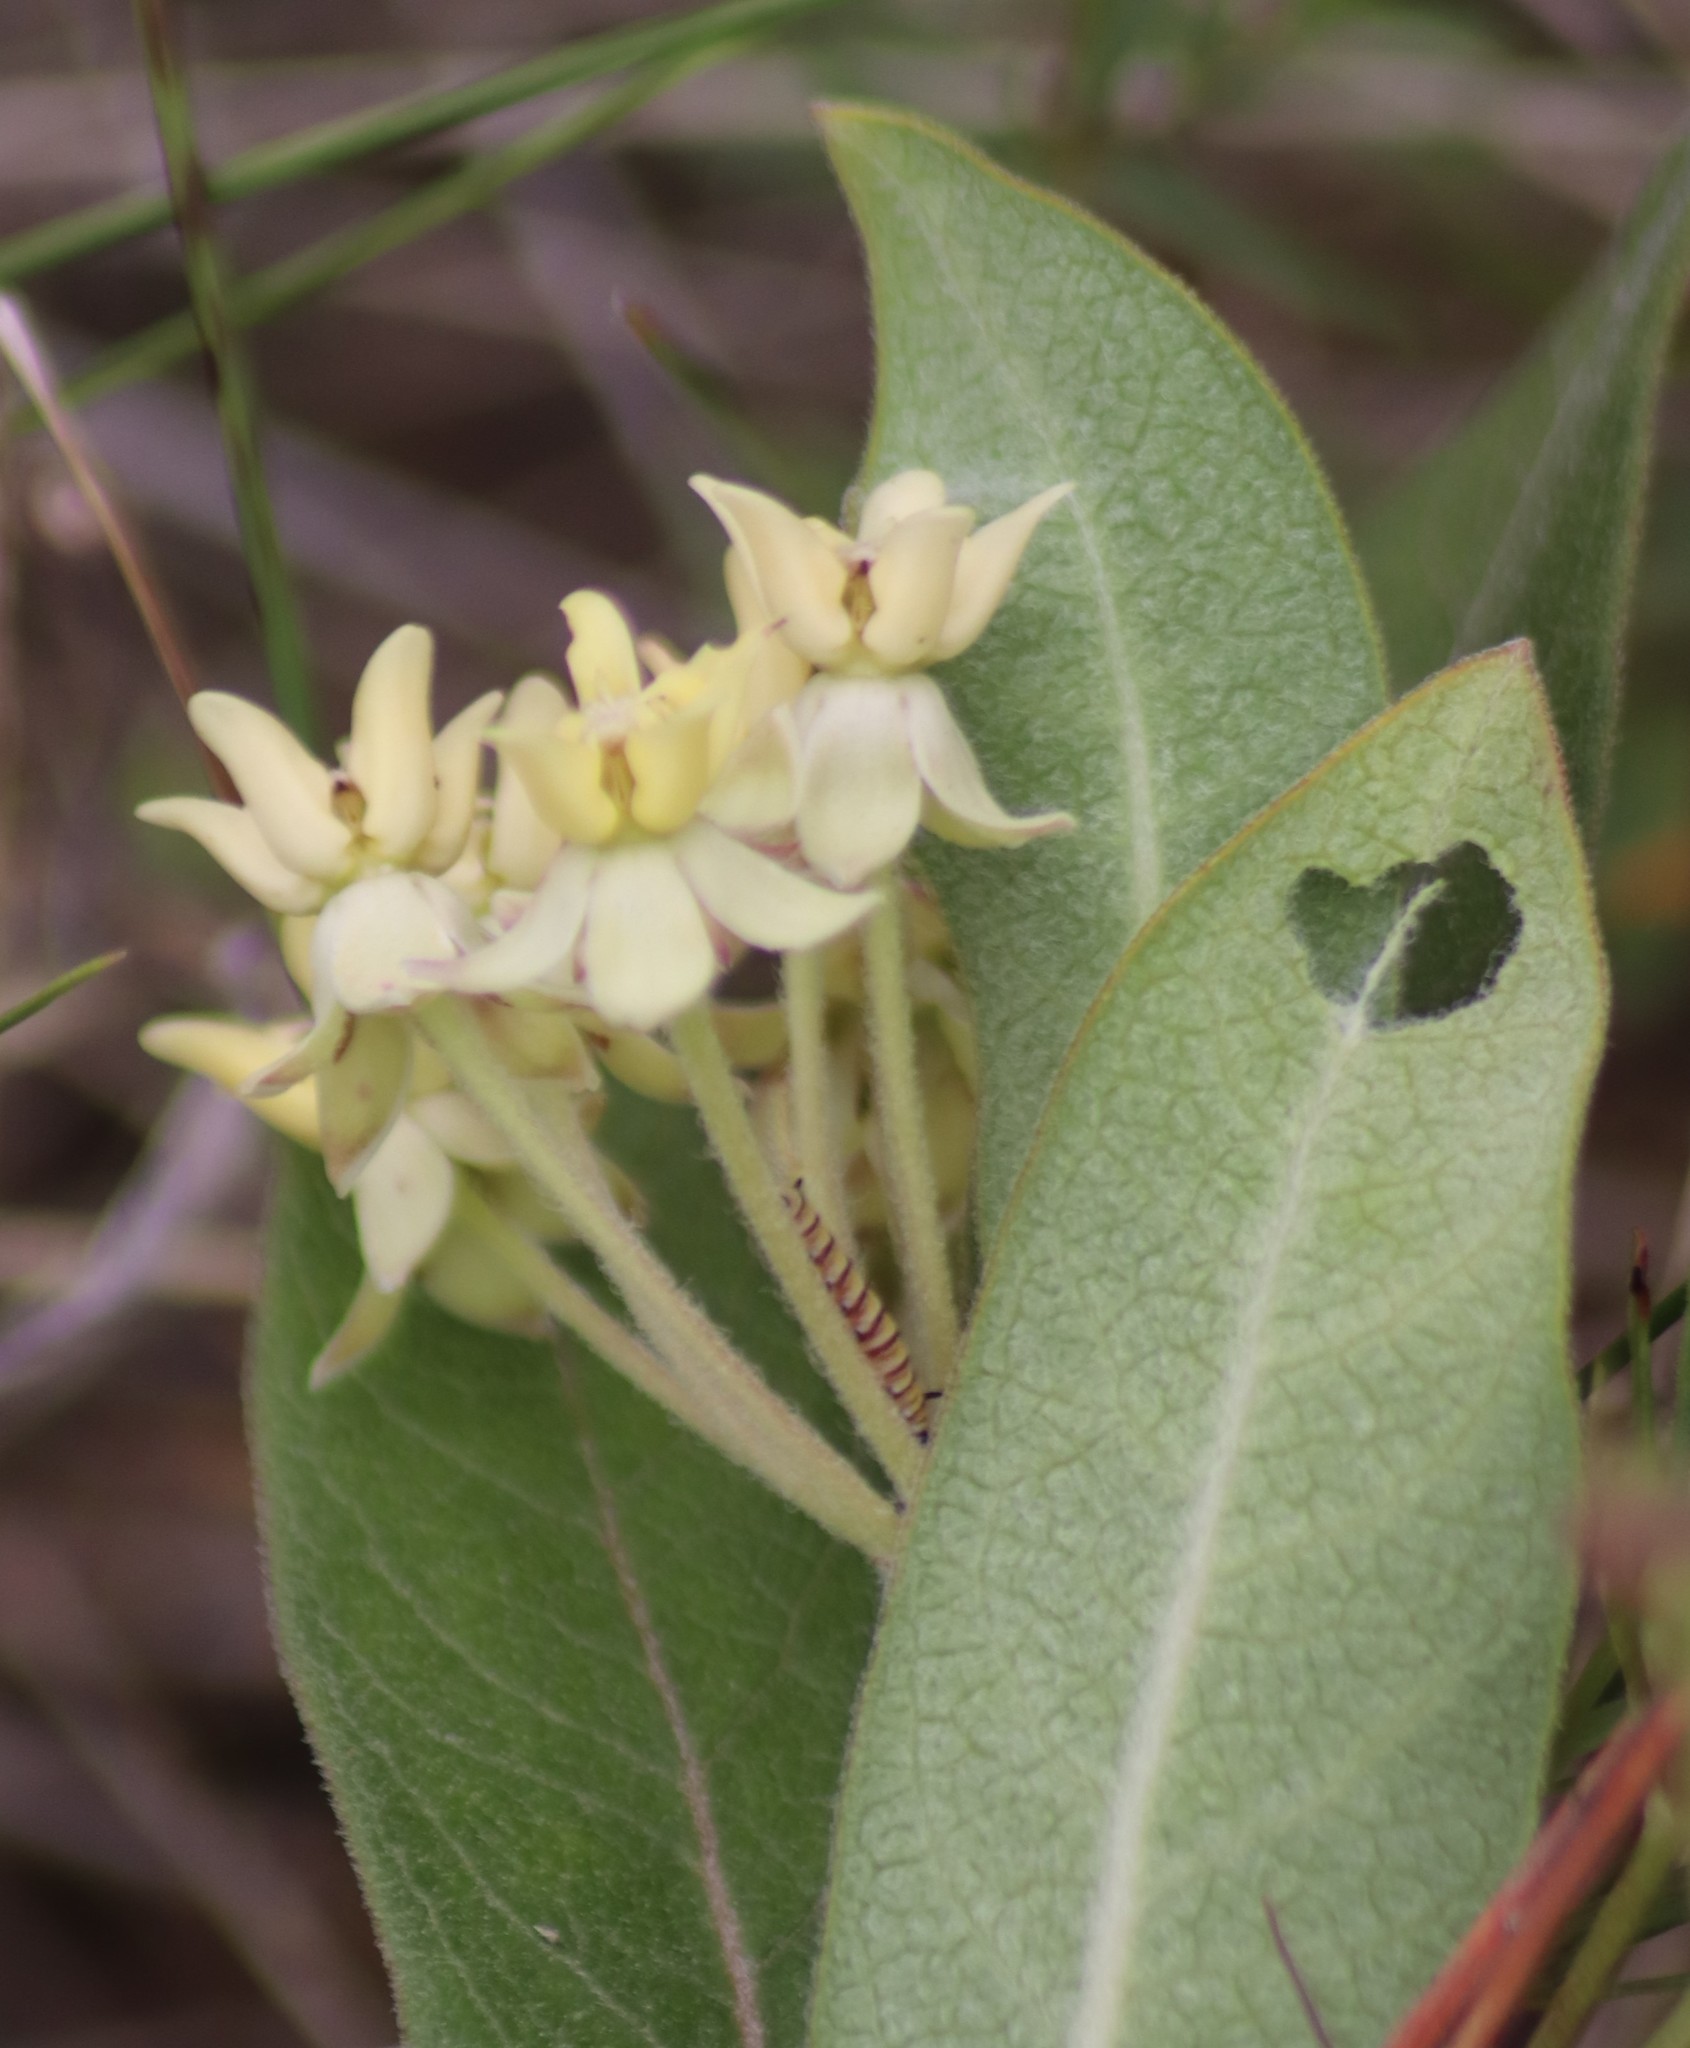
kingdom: Animalia
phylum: Arthropoda
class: Insecta
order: Lepidoptera
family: Nymphalidae
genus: Danaus
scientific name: Danaus plexippus
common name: Monarch
